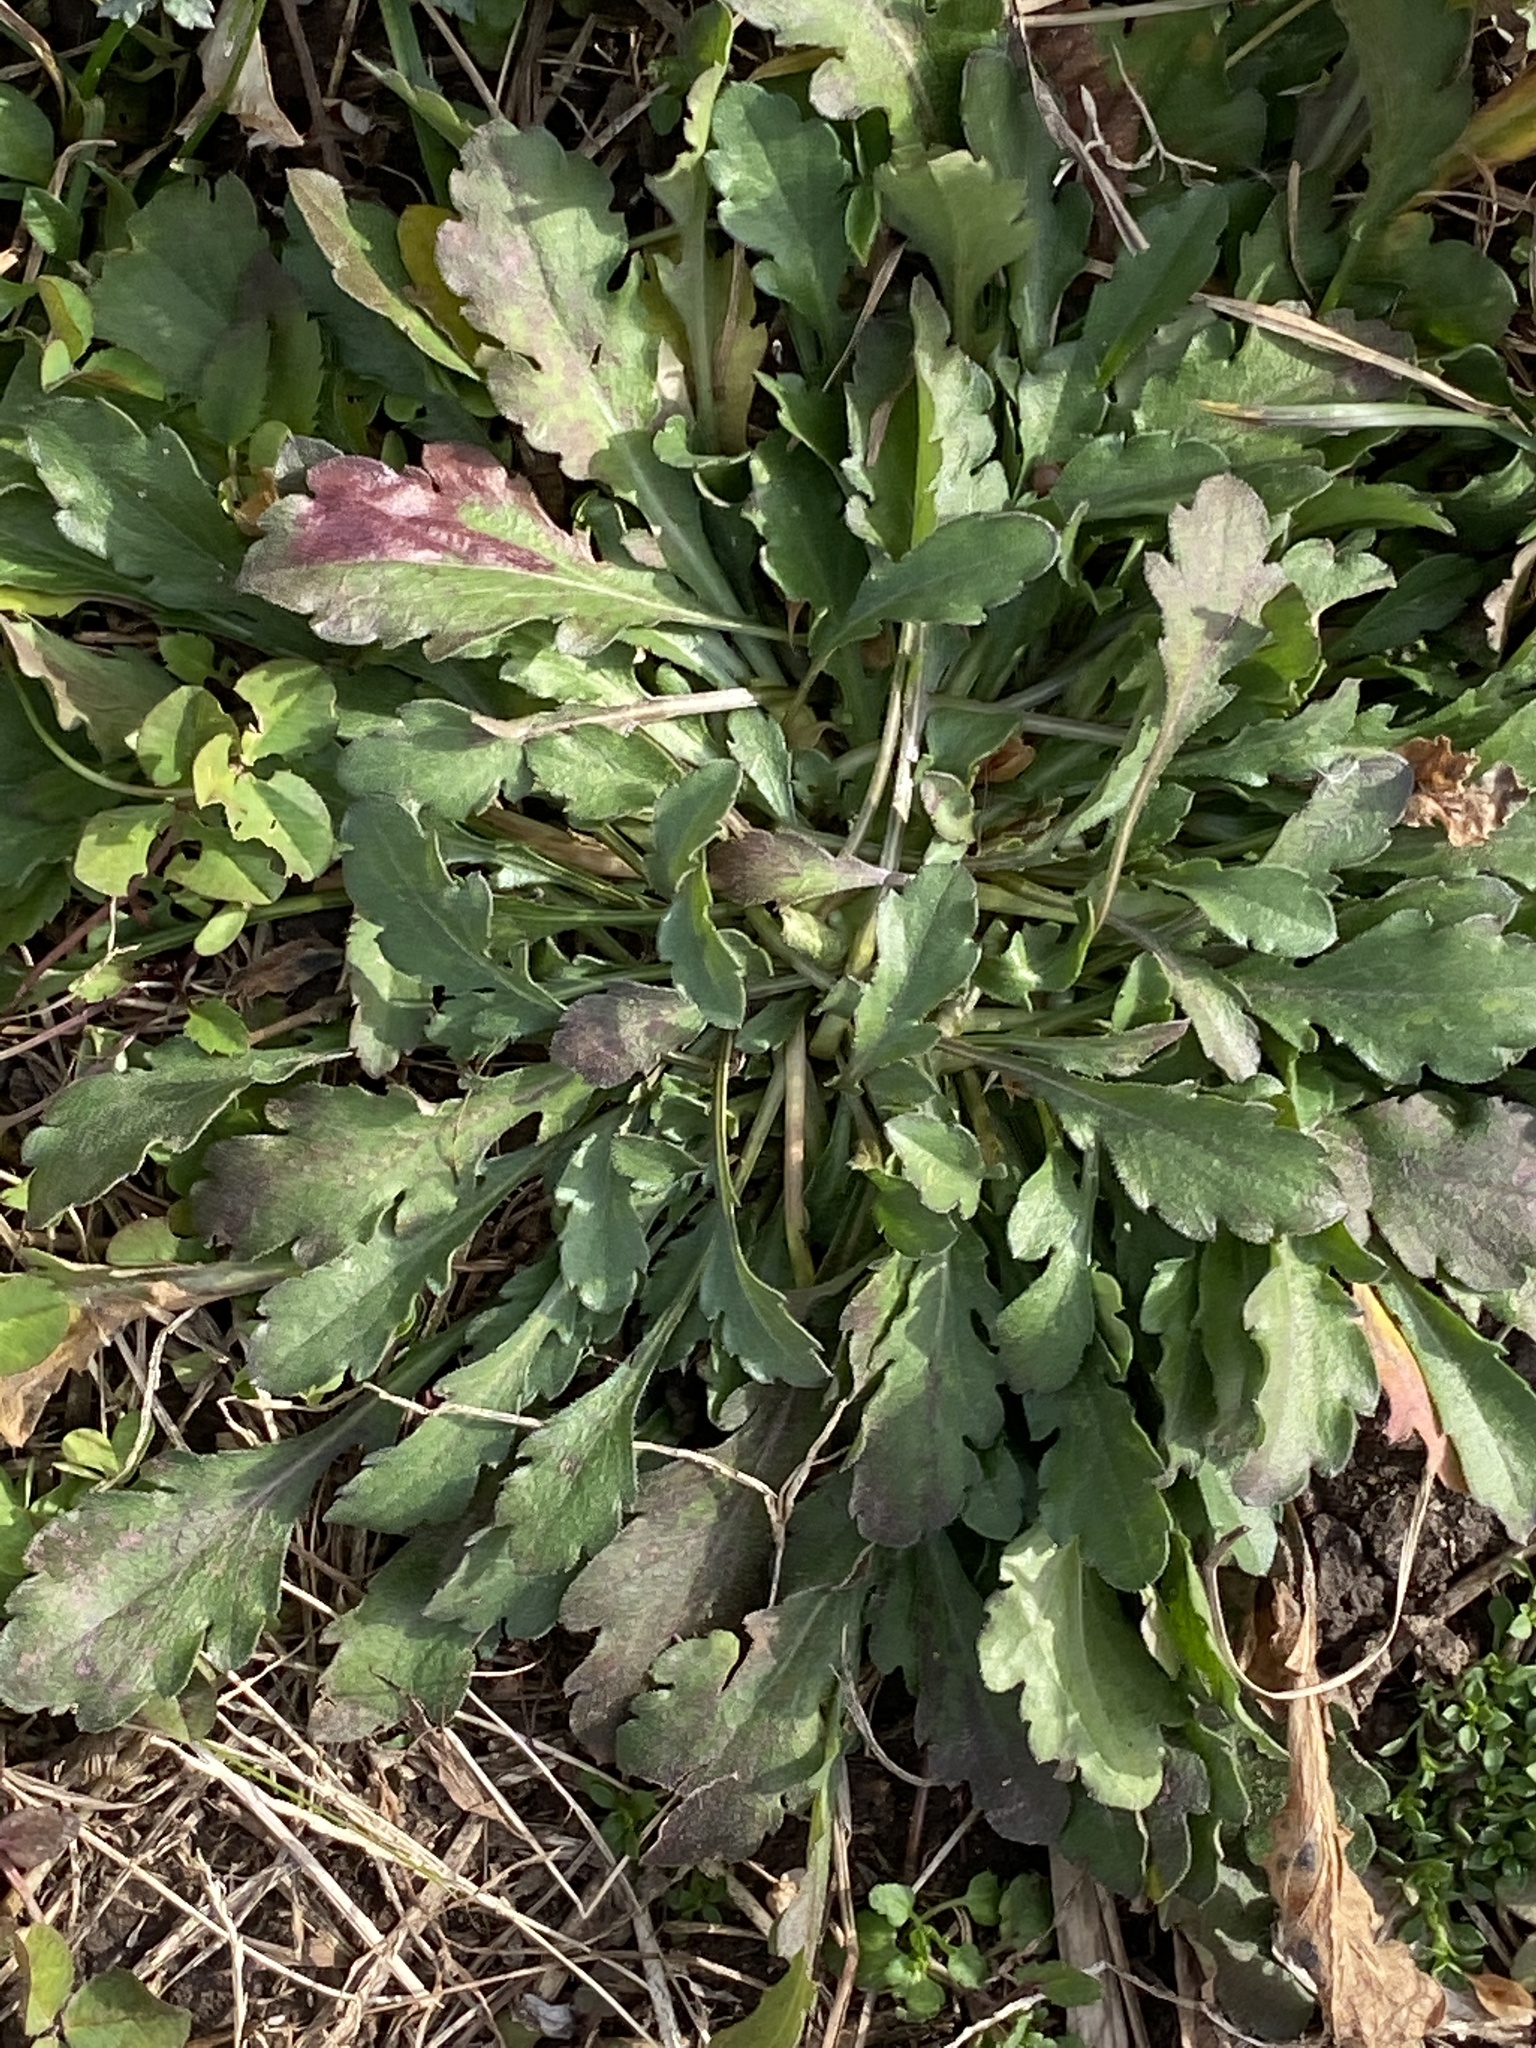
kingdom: Plantae
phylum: Tracheophyta
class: Magnoliopsida
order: Asterales
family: Asteraceae
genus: Erigeron
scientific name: Erigeron canadensis
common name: Canadian fleabane
